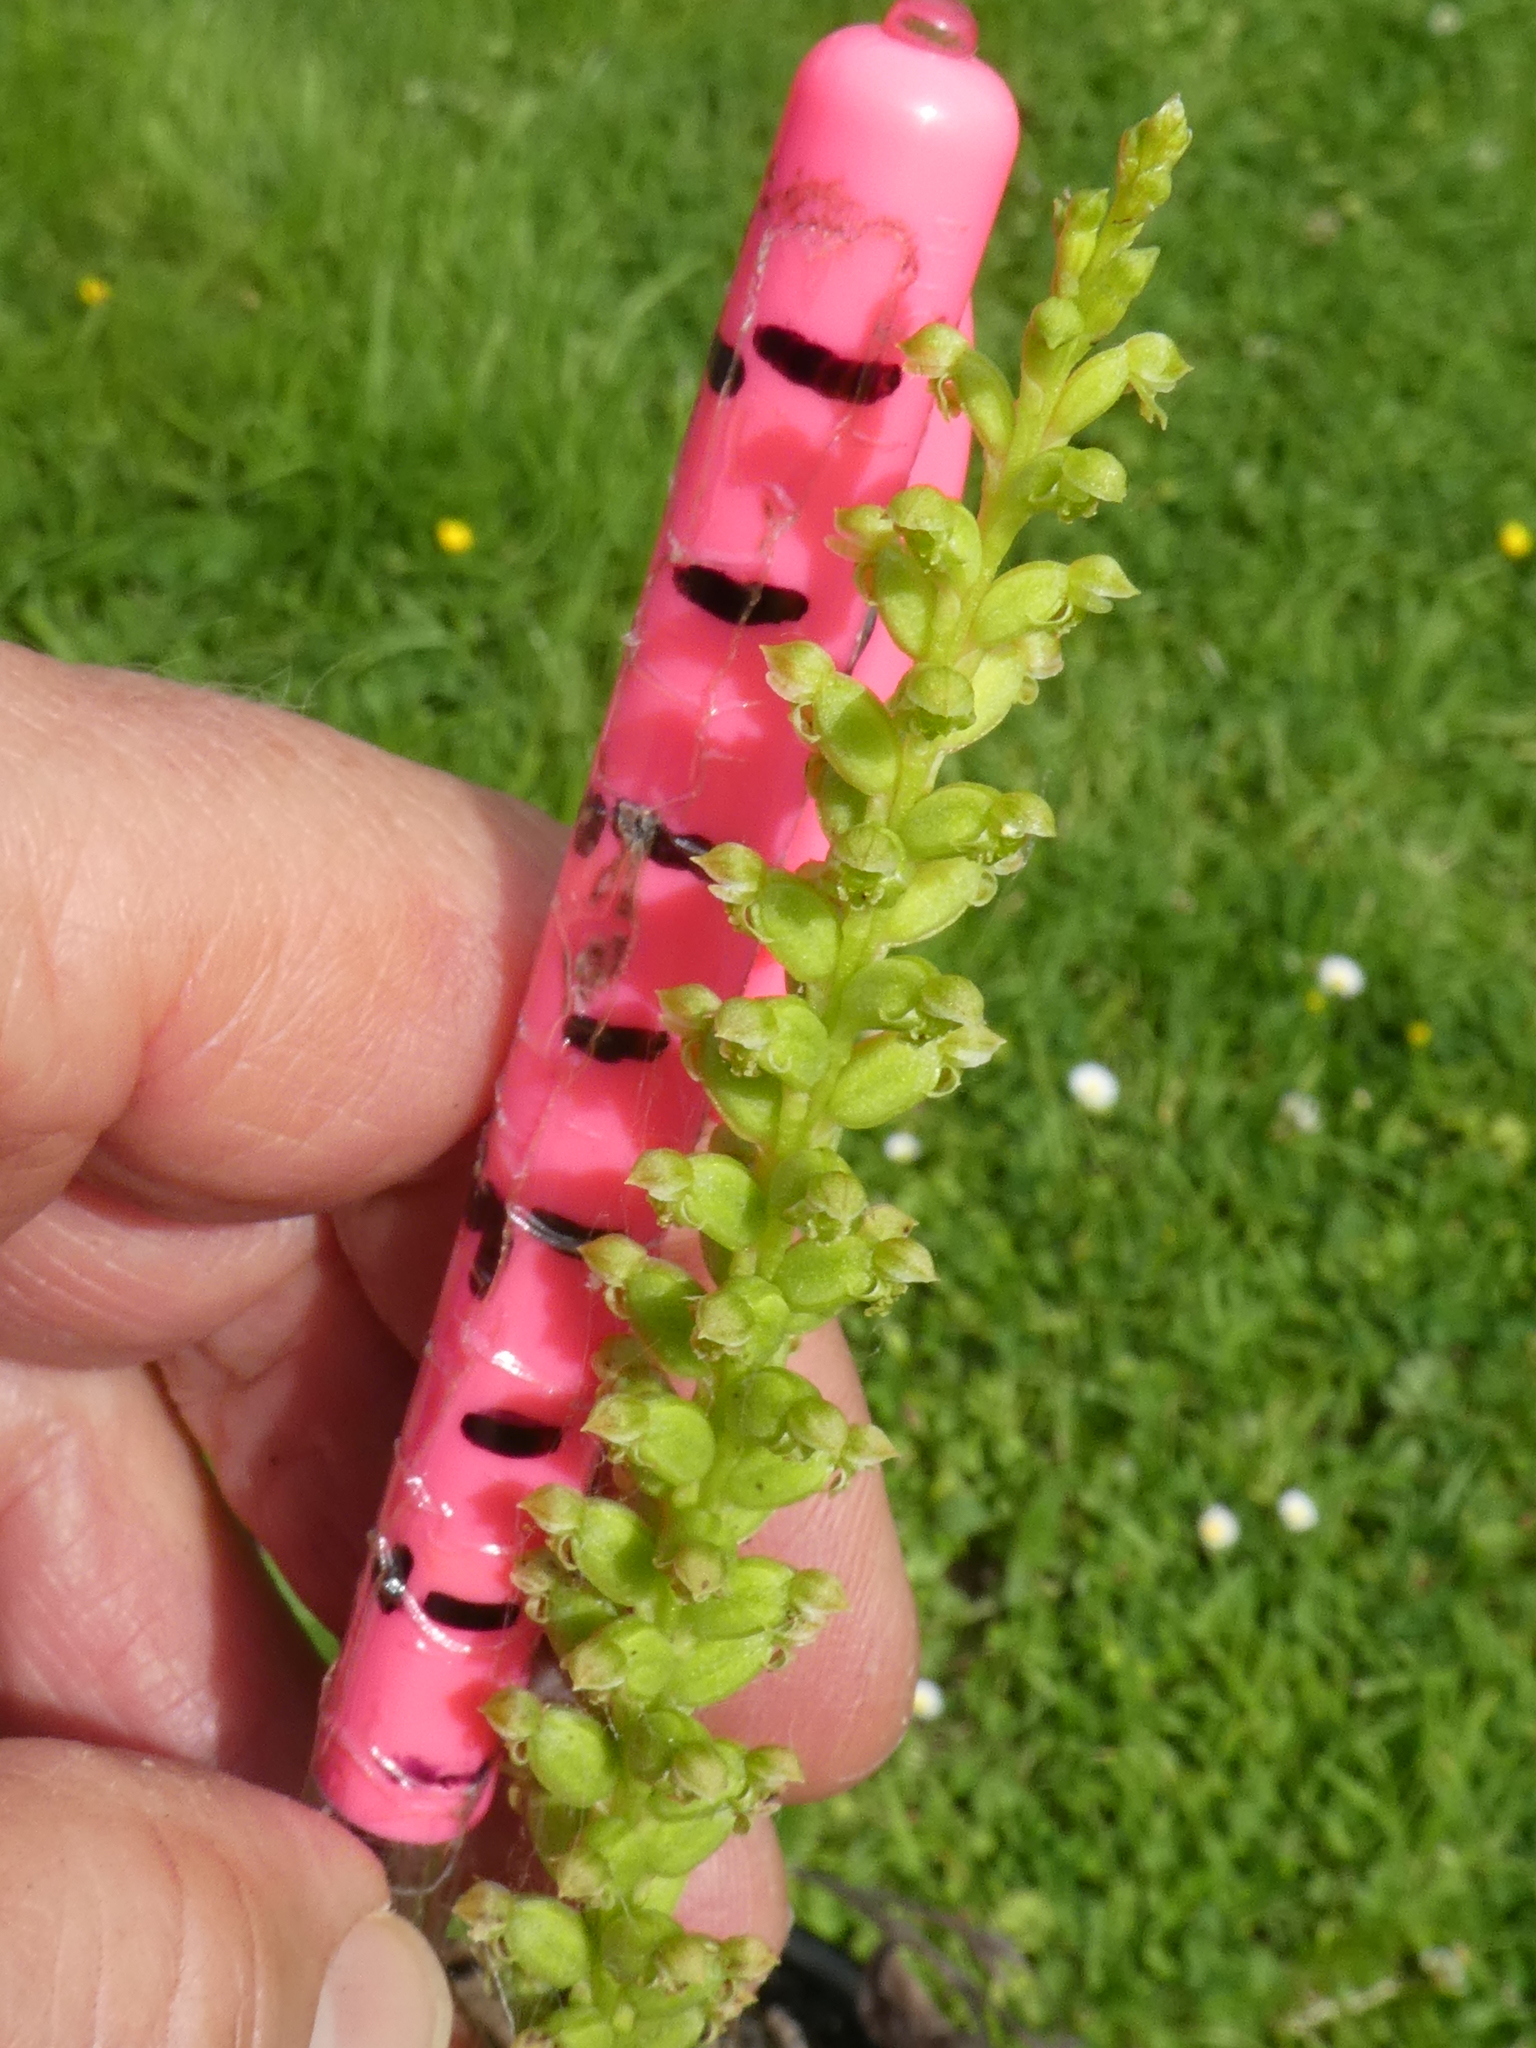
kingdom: Plantae
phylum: Tracheophyta
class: Liliopsida
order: Asparagales
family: Orchidaceae
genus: Microtis
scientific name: Microtis unifolia
